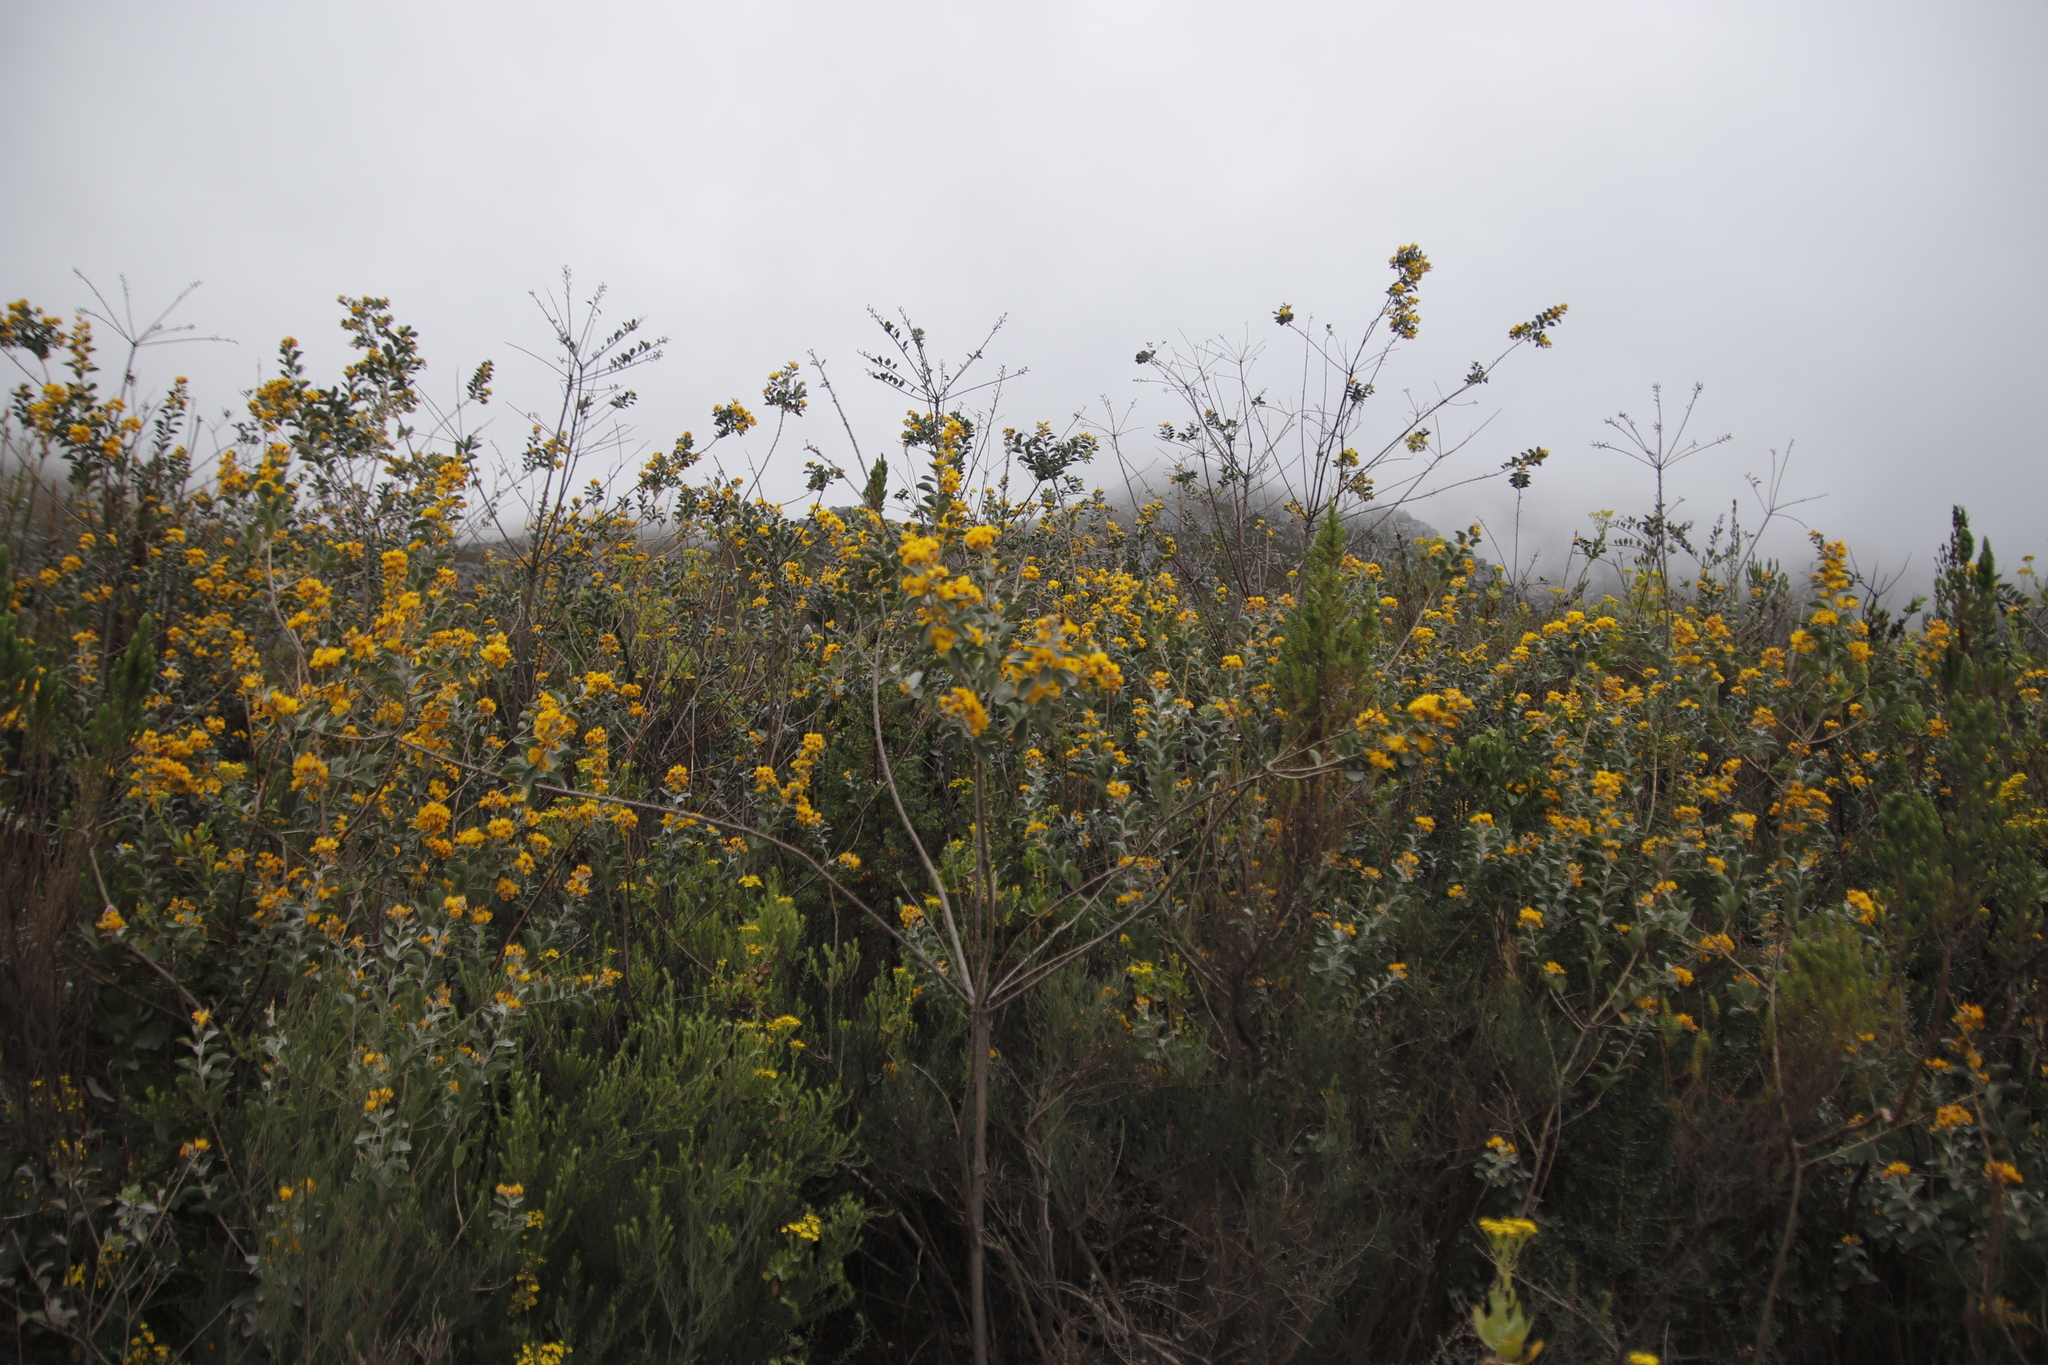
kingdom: Plantae
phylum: Tracheophyta
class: Magnoliopsida
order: Fabales
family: Fabaceae
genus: Stirtonanthus
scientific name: Stirtonanthus taylorianus
